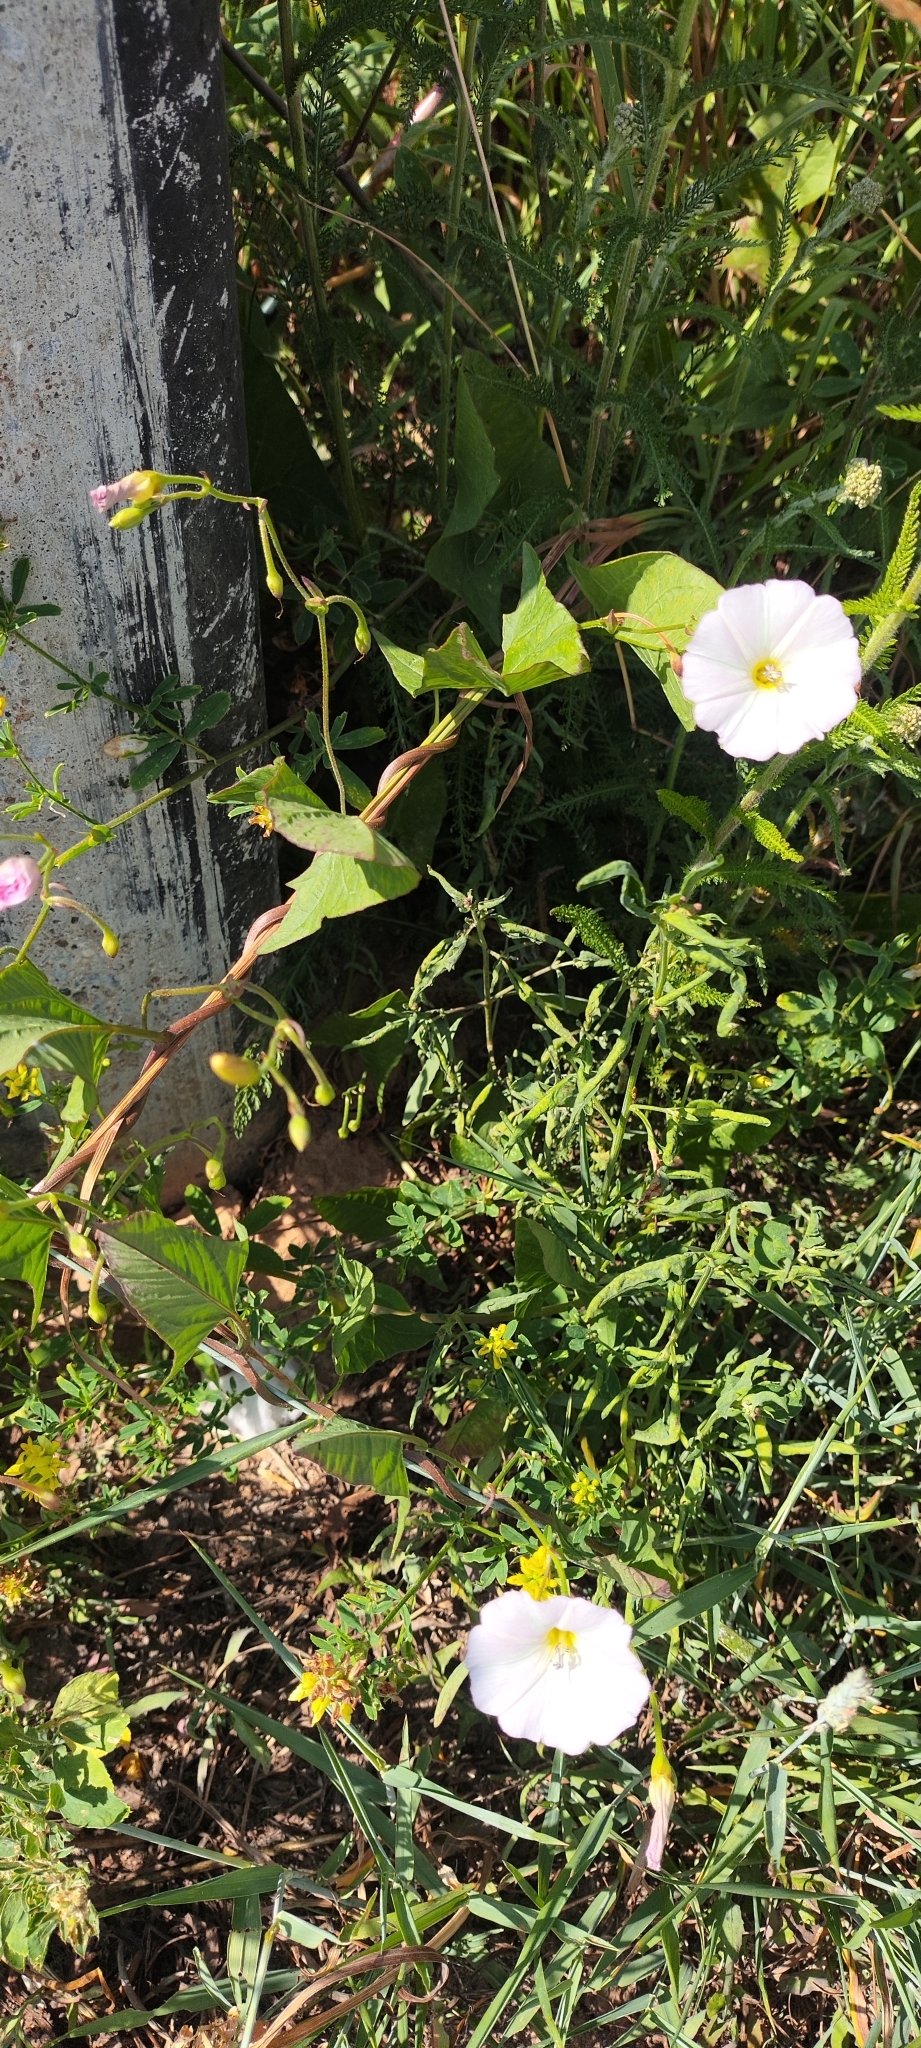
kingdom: Plantae
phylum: Tracheophyta
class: Magnoliopsida
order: Solanales
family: Convolvulaceae
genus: Convolvulus
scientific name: Convolvulus arvensis
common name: Field bindweed
